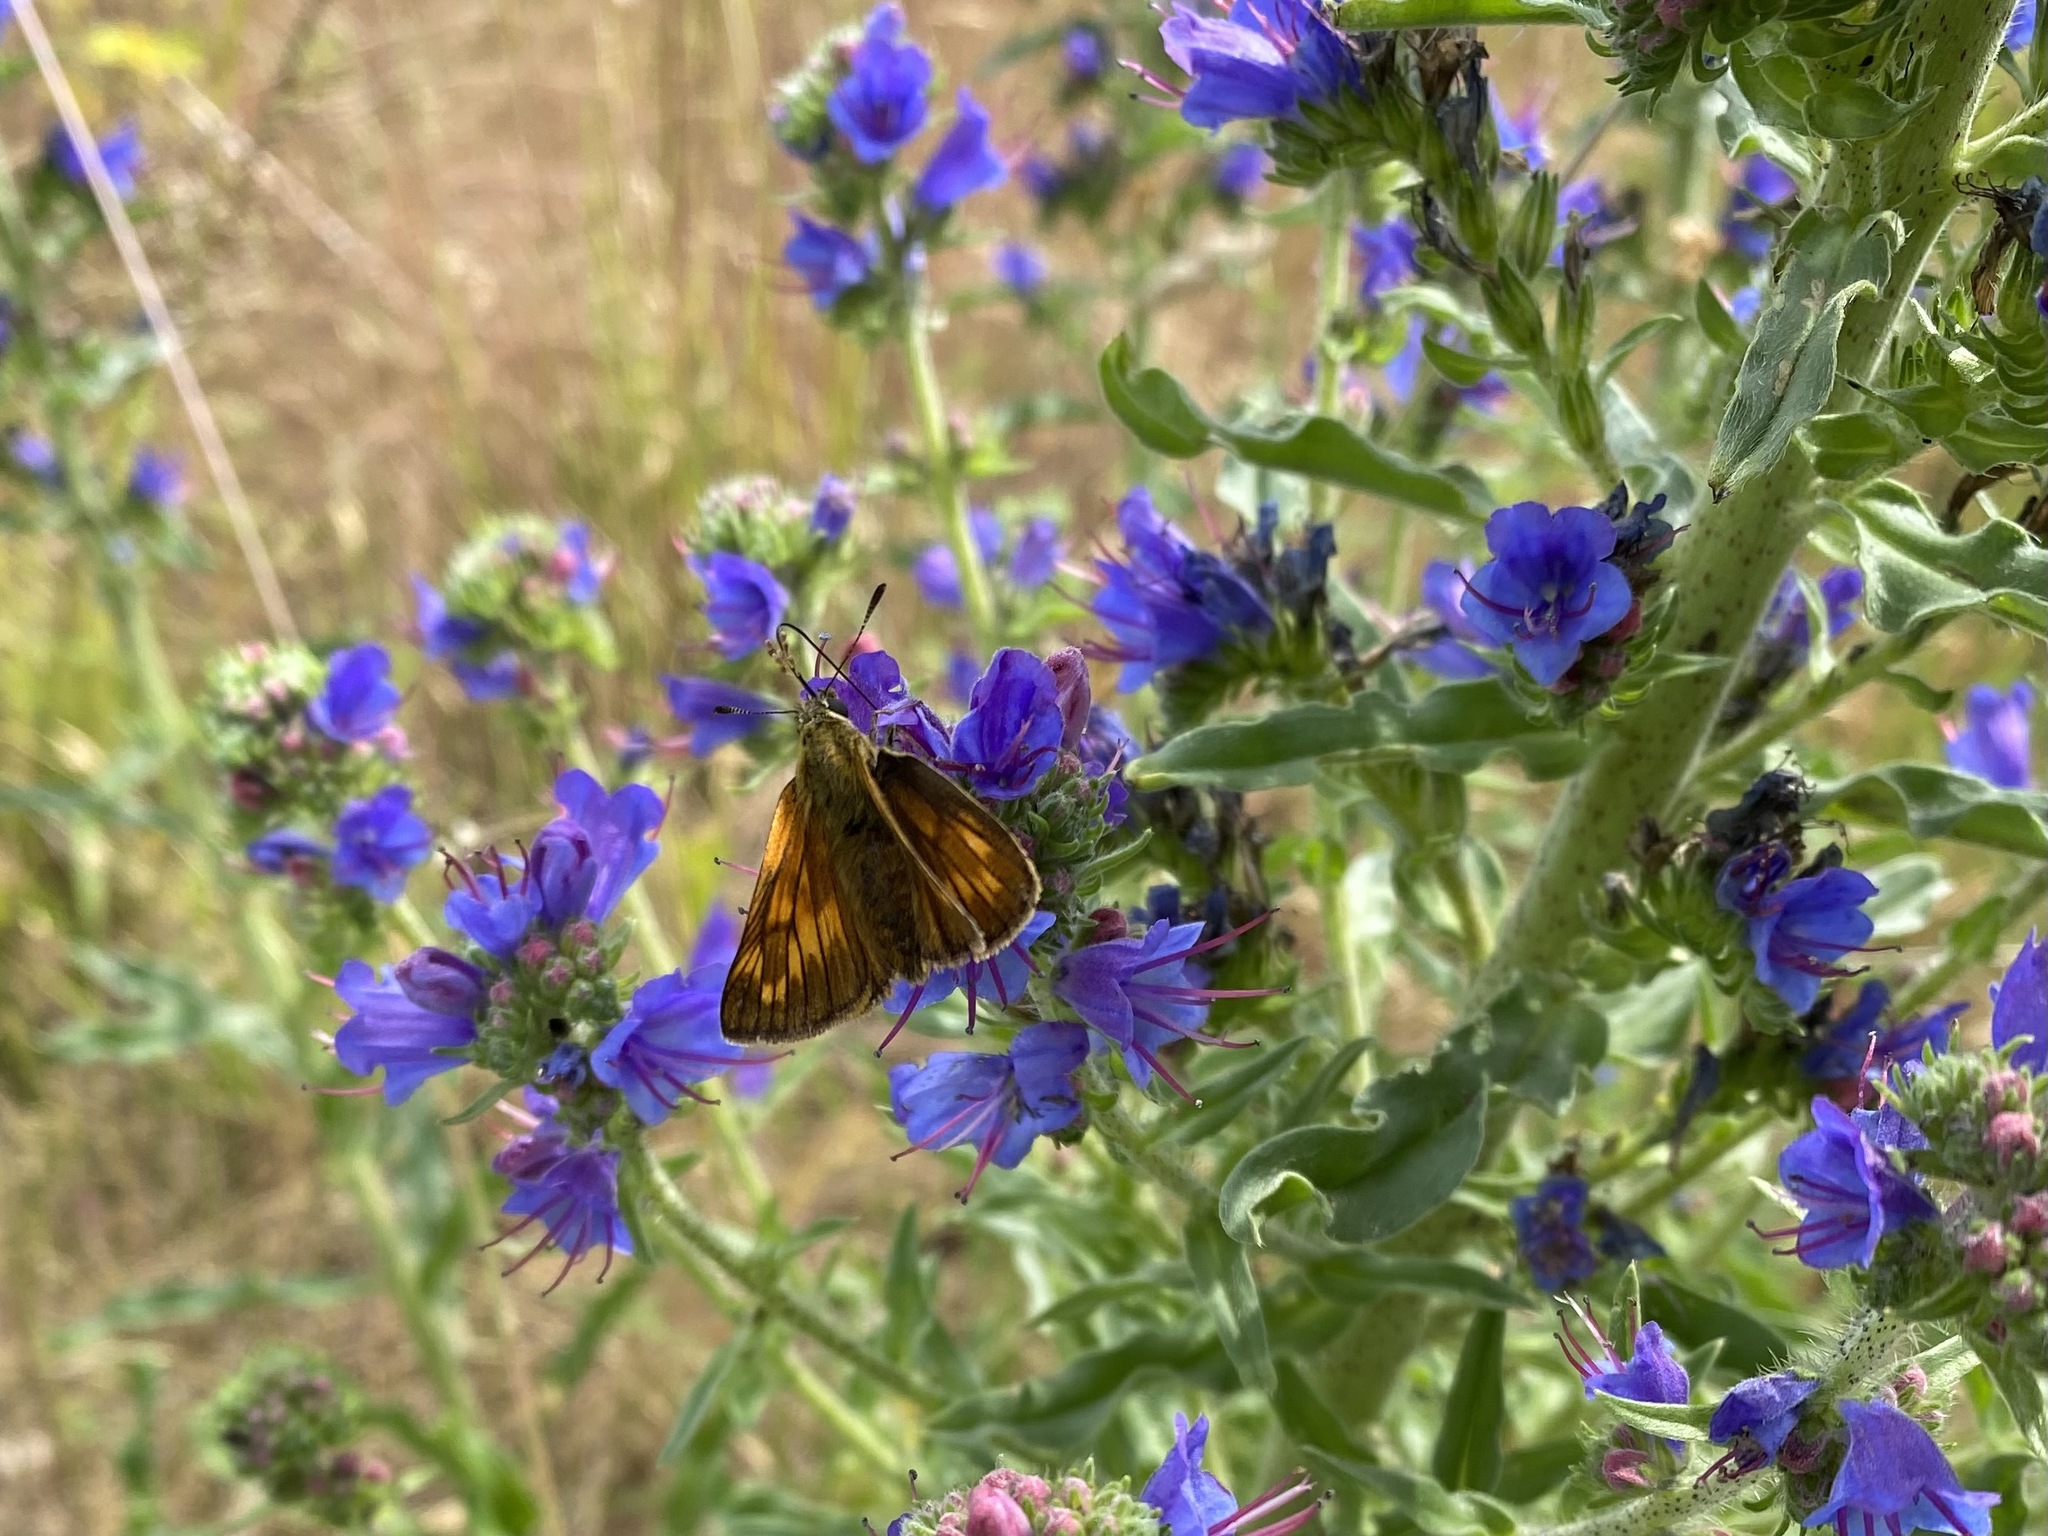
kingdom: Animalia
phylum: Arthropoda
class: Insecta
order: Lepidoptera
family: Hesperiidae
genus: Ochlodes
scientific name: Ochlodes venata
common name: Large skipper
